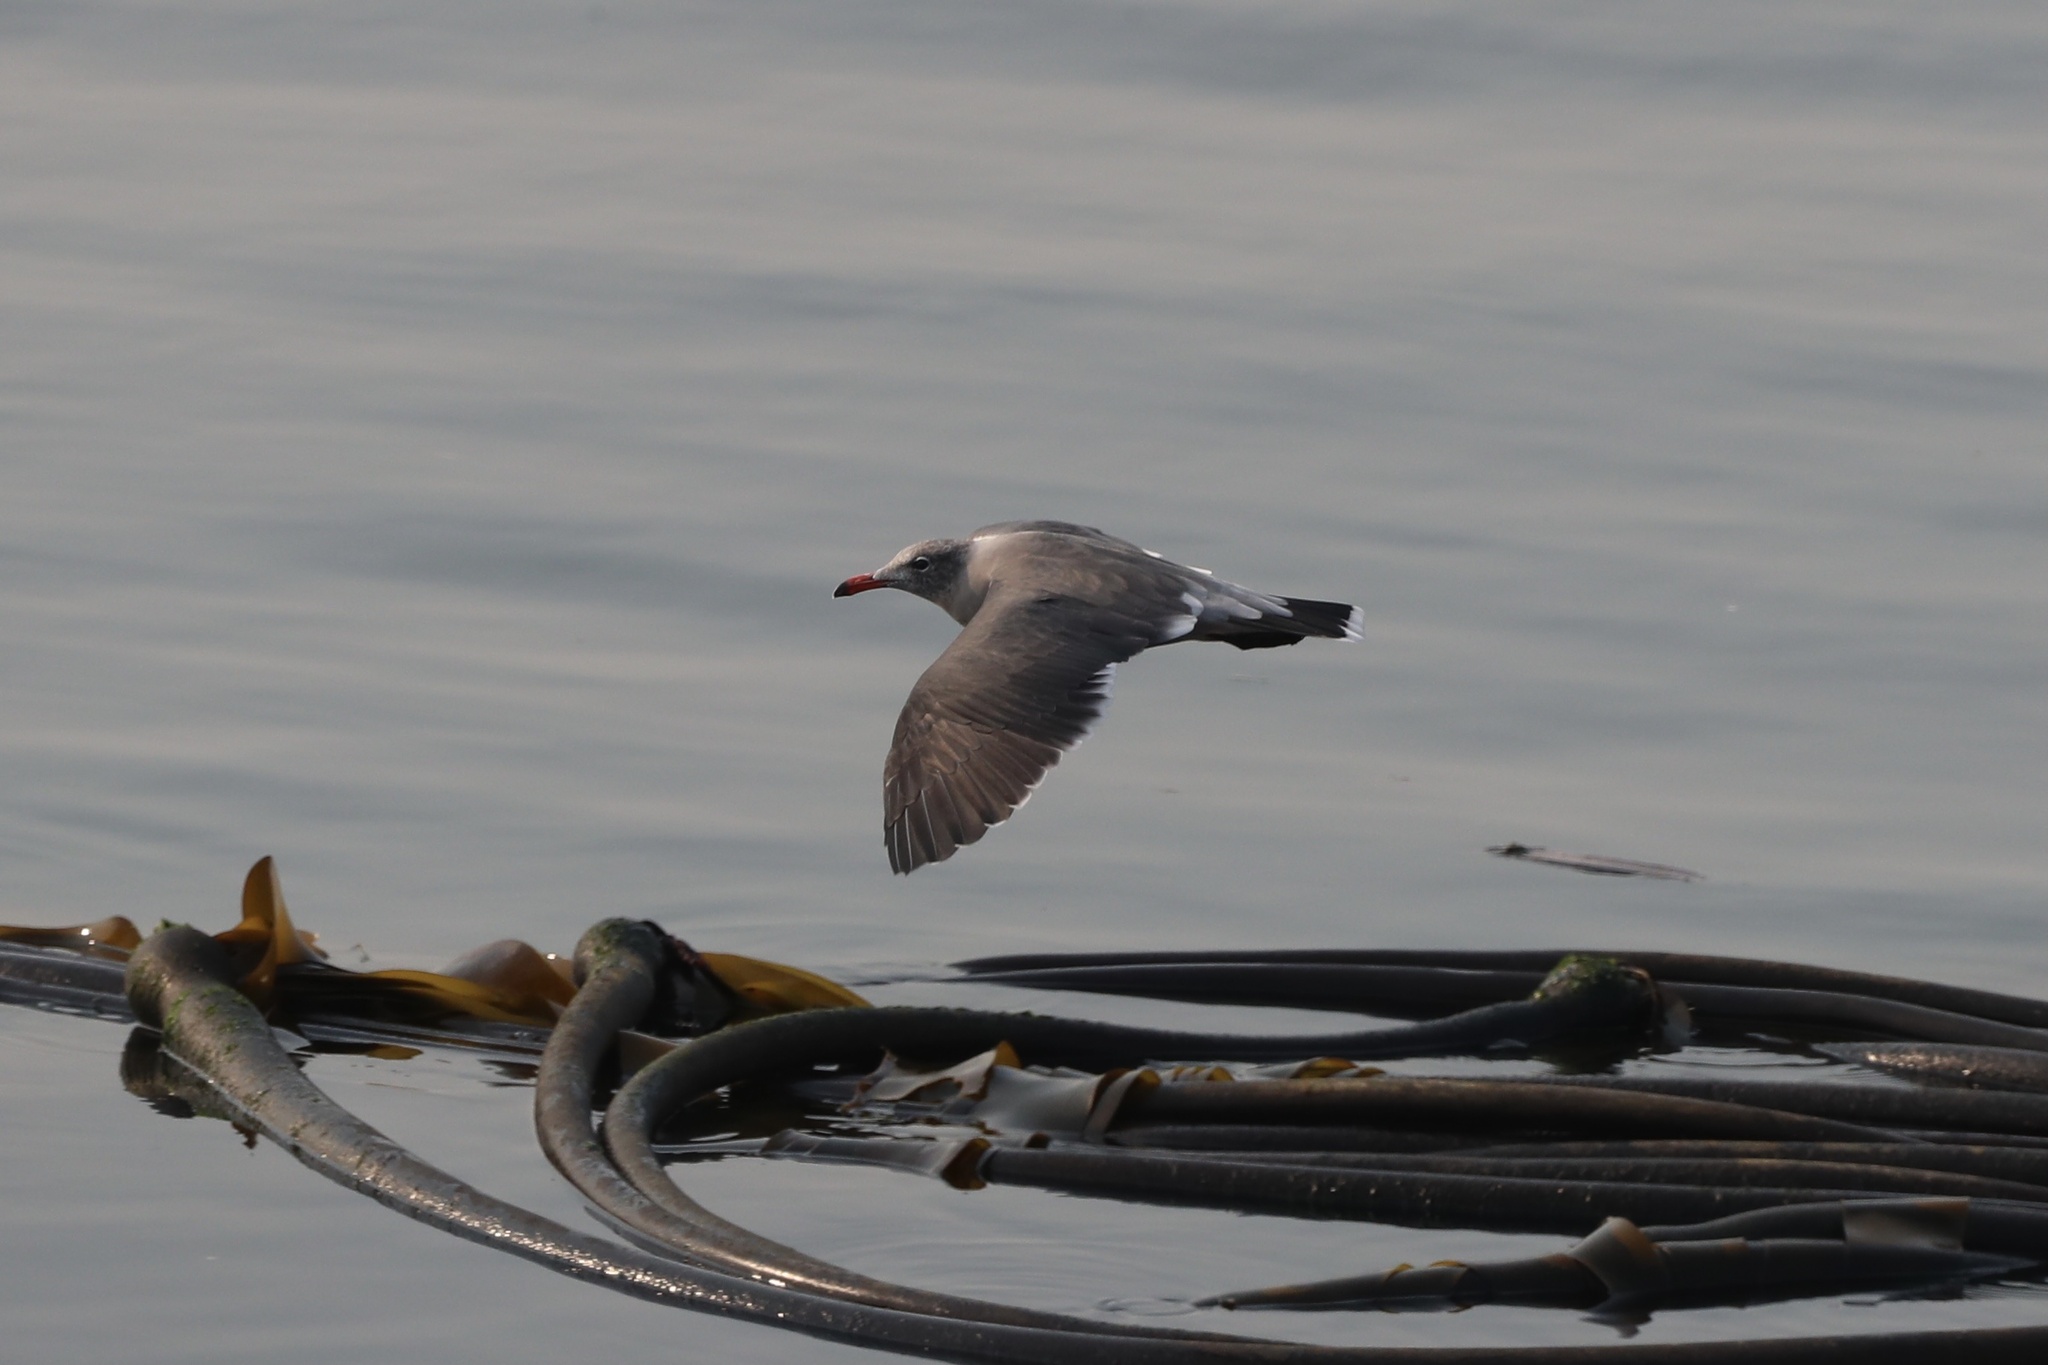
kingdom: Animalia
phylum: Chordata
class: Aves
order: Charadriiformes
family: Laridae
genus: Larus
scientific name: Larus heermanni
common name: Heermann's gull
